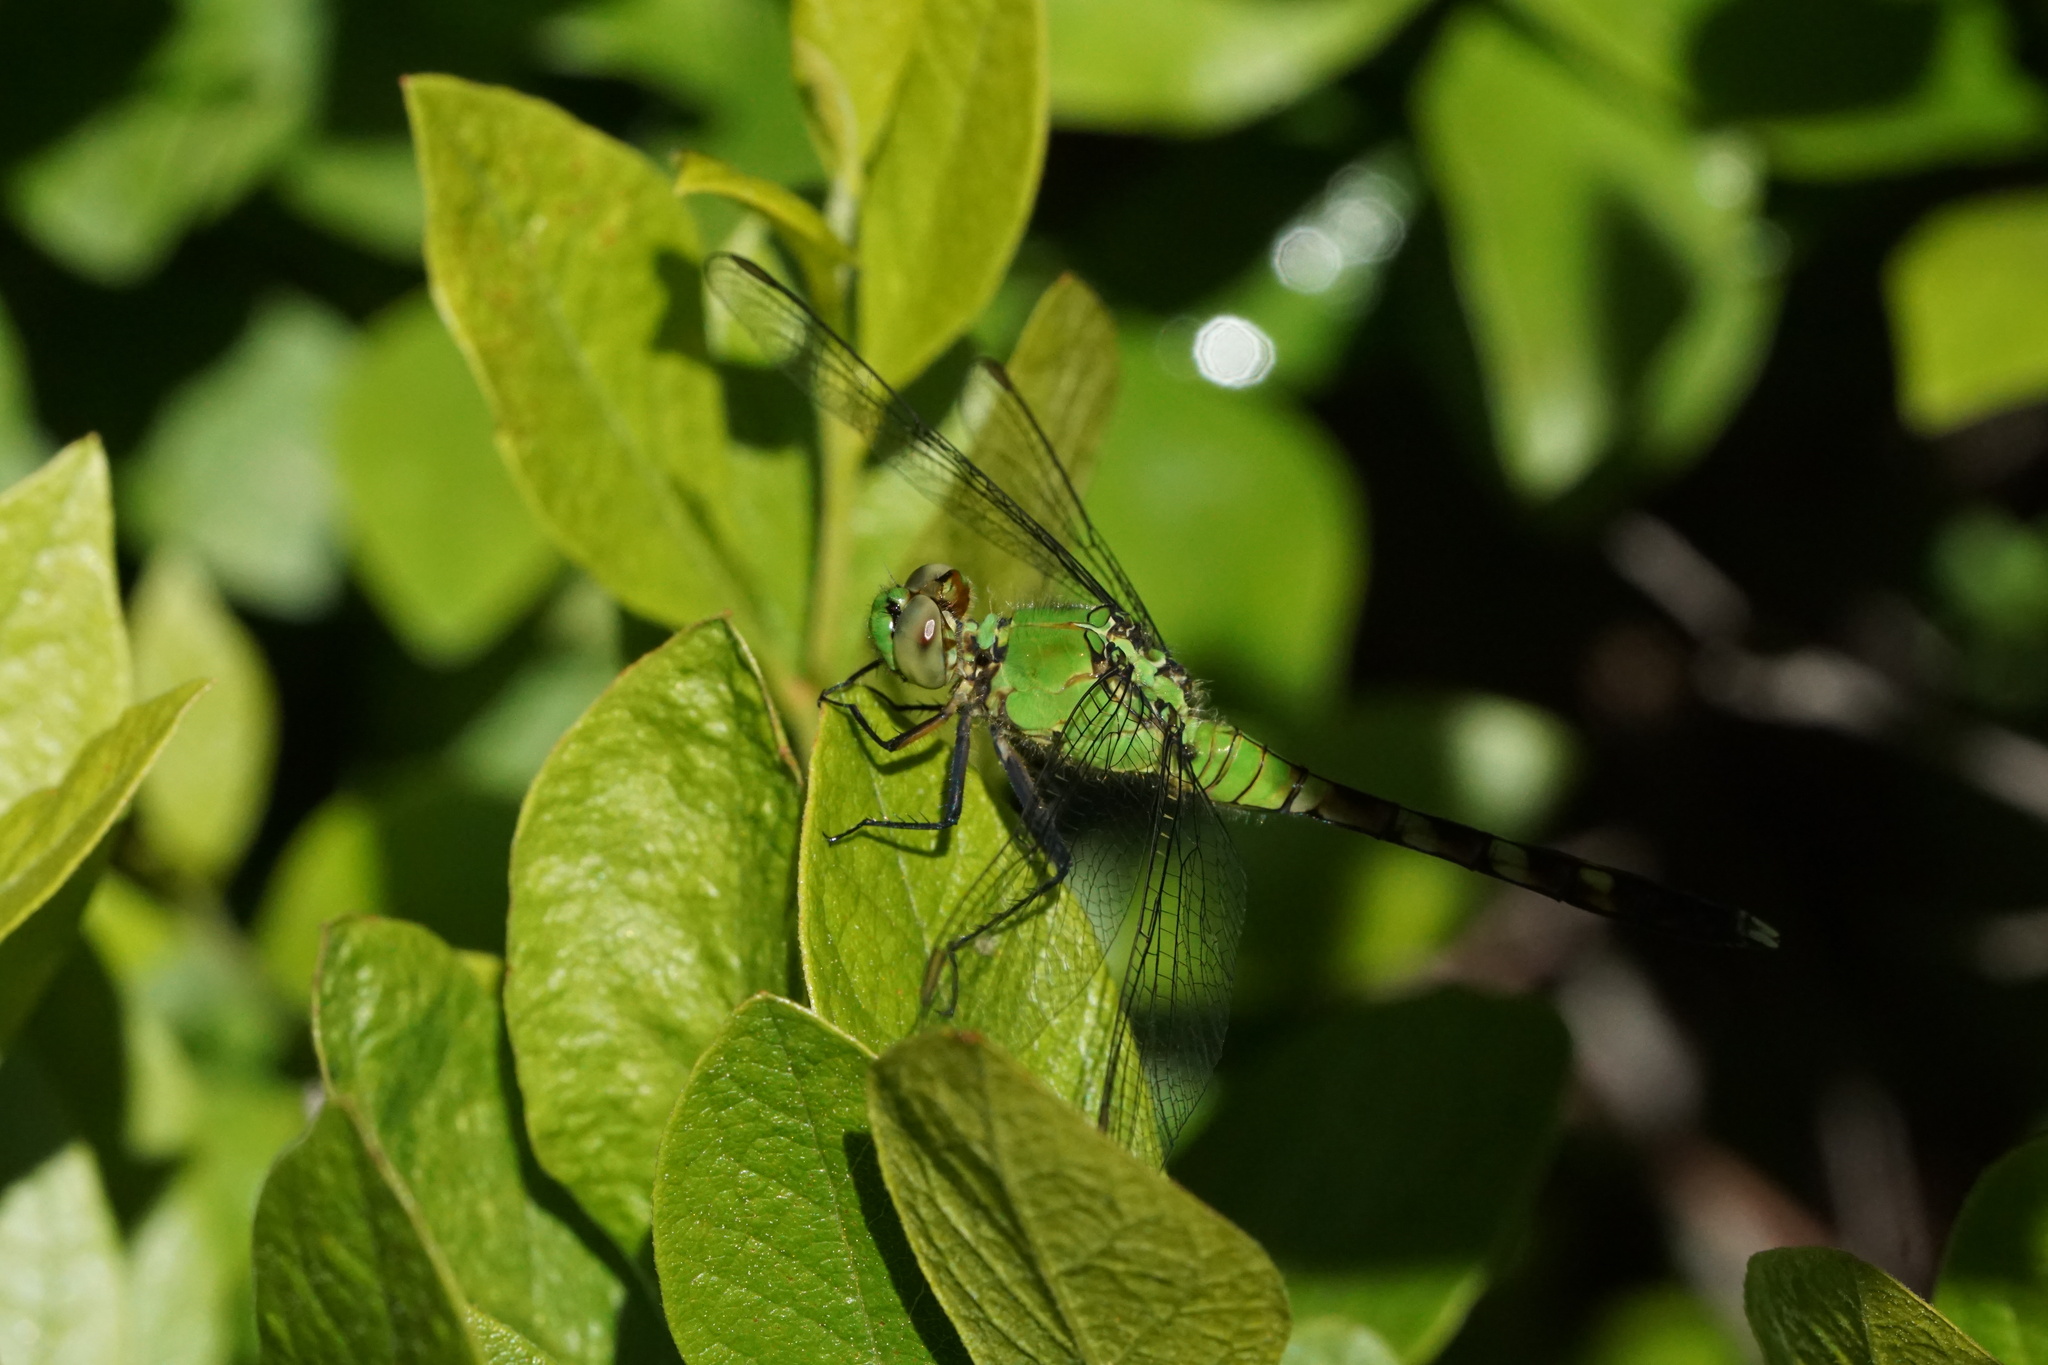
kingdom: Animalia
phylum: Arthropoda
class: Insecta
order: Odonata
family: Libellulidae
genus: Erythemis
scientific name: Erythemis simplicicollis
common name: Eastern pondhawk
